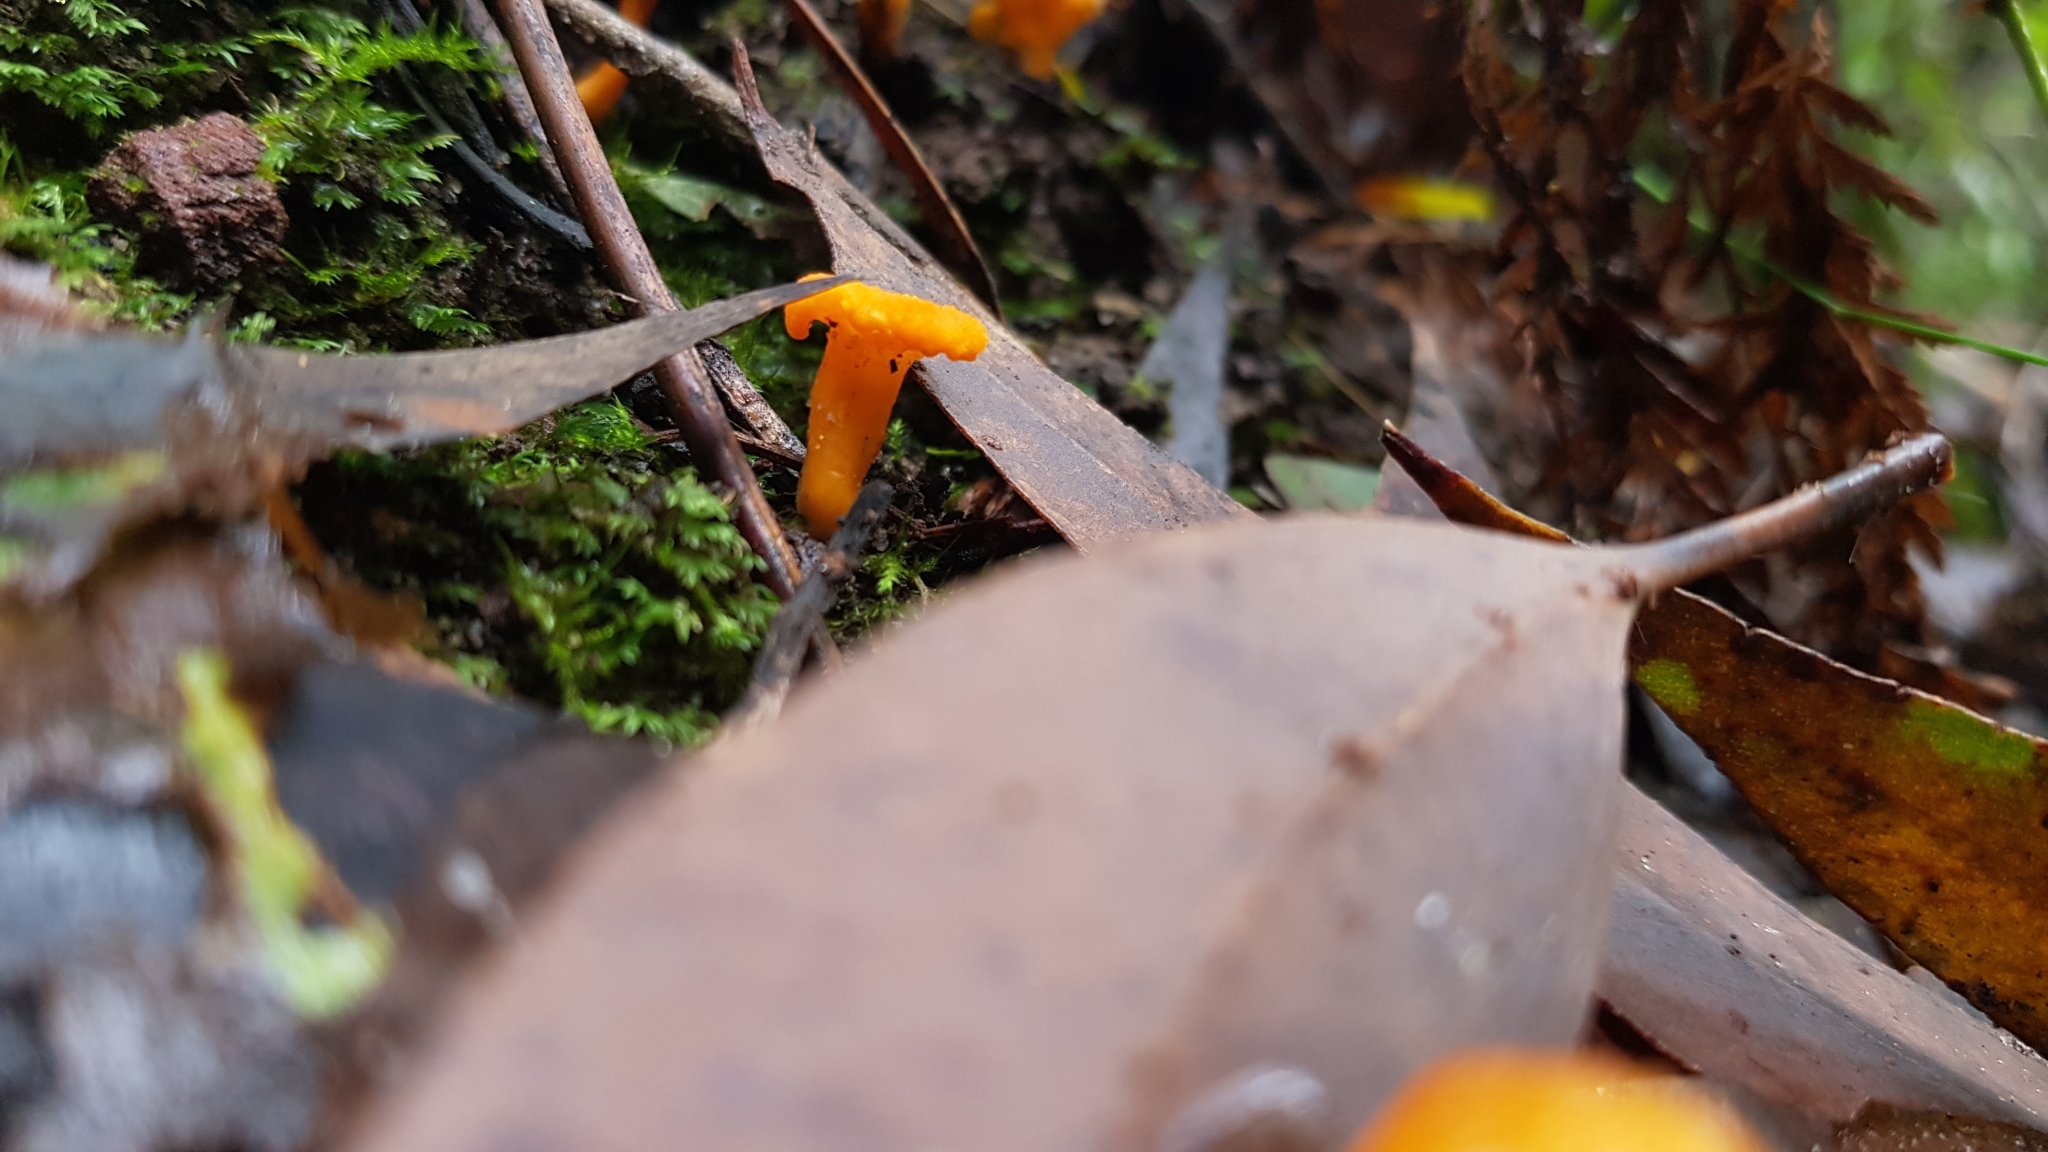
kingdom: Fungi
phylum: Basidiomycota
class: Agaricomycetes
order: Cantharellales
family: Hydnaceae
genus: Cantharellus
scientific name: Cantharellus
